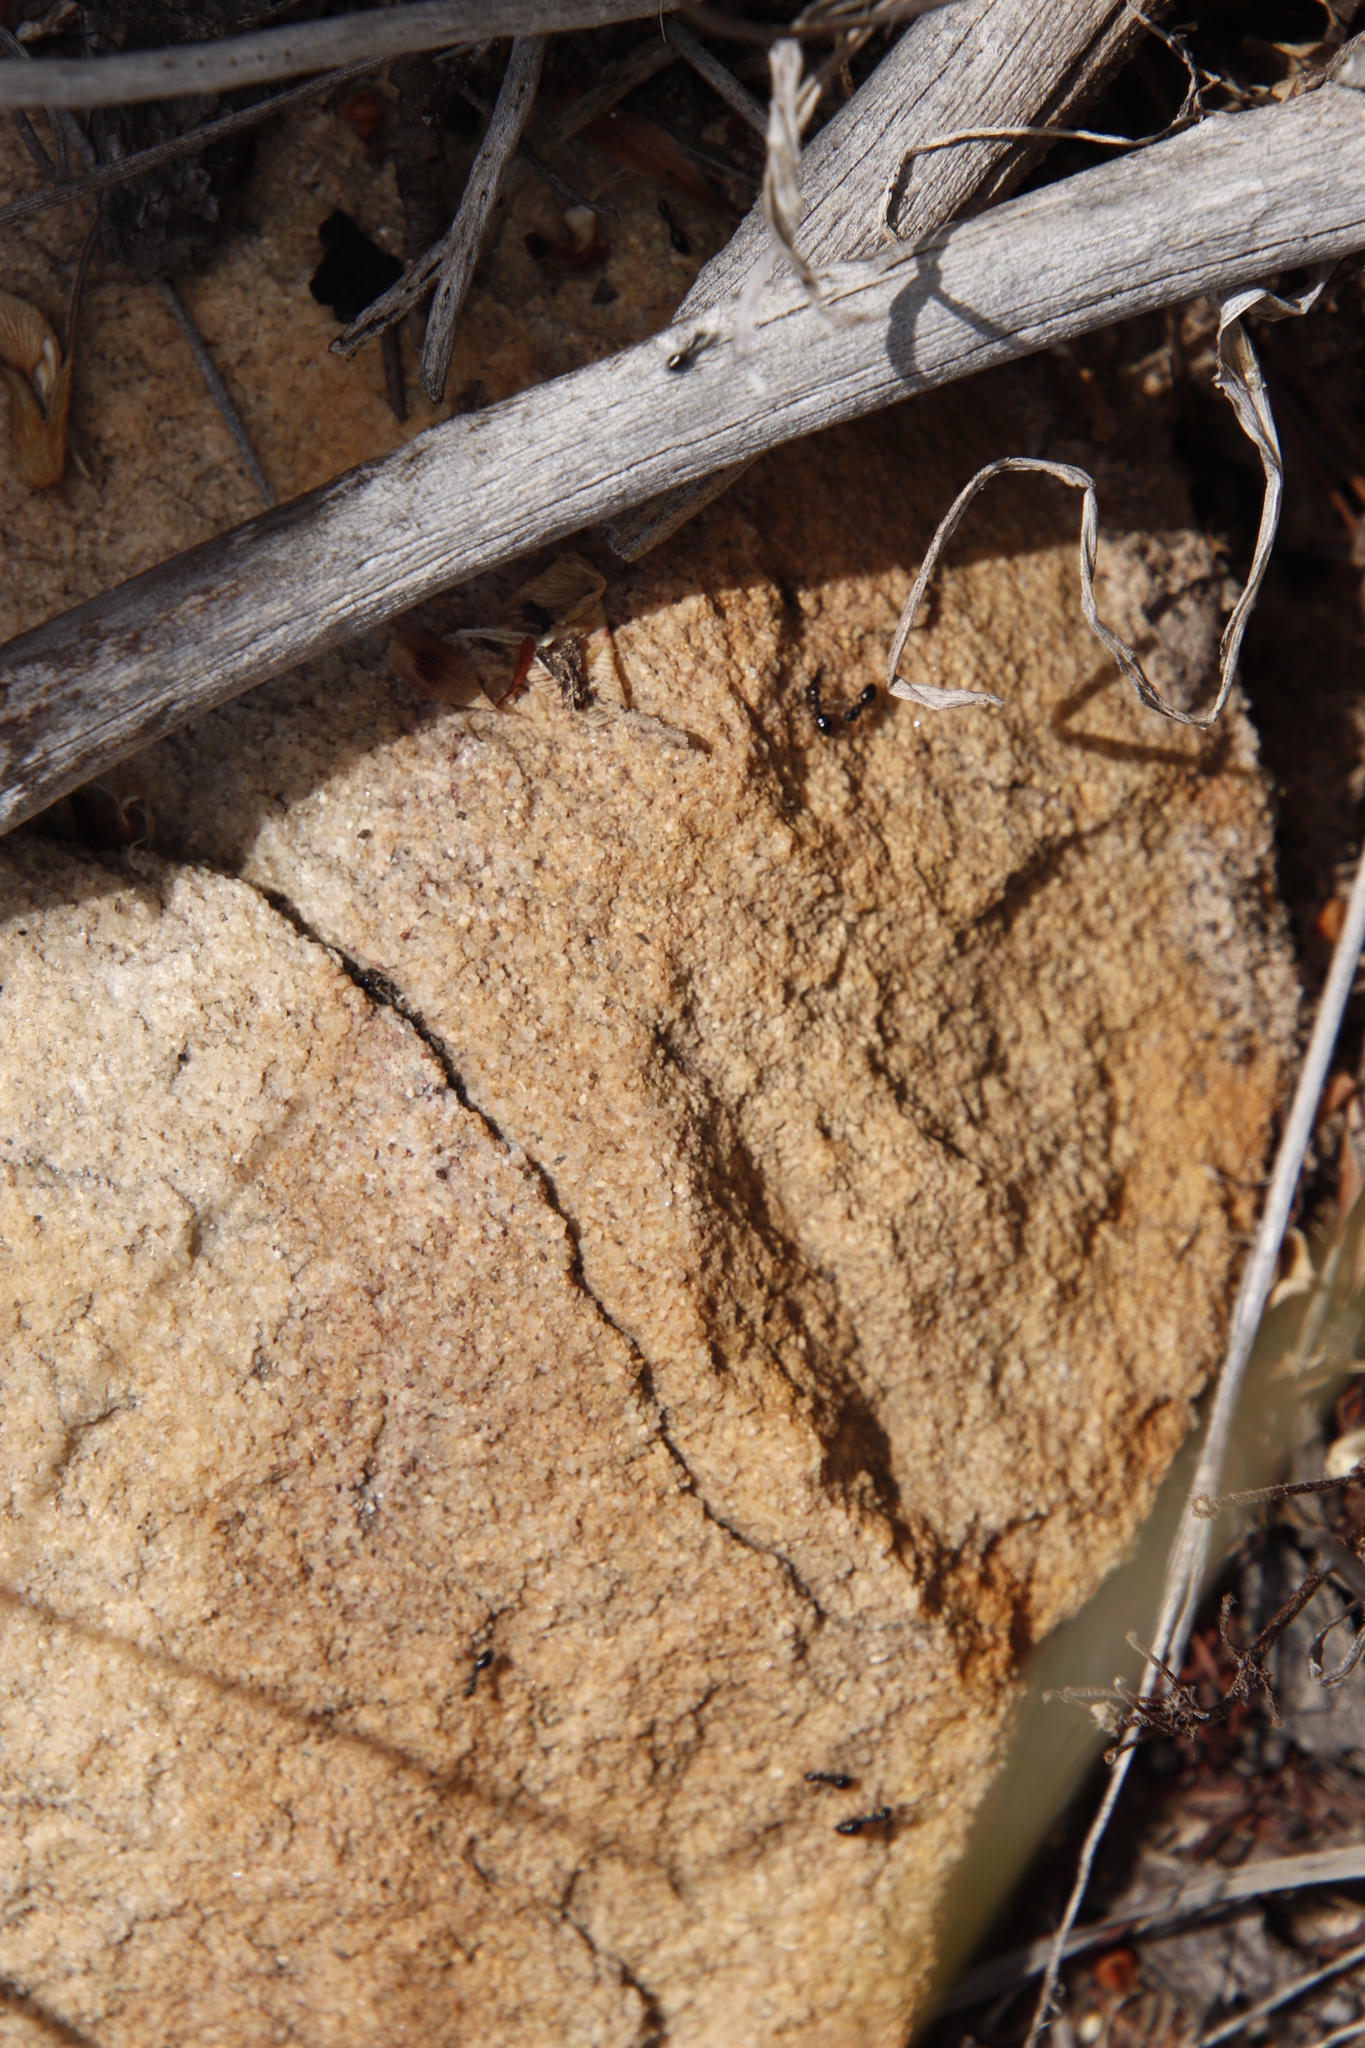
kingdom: Animalia
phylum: Arthropoda
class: Insecta
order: Hymenoptera
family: Formicidae
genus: Lepisiota
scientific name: Lepisiota capensis
